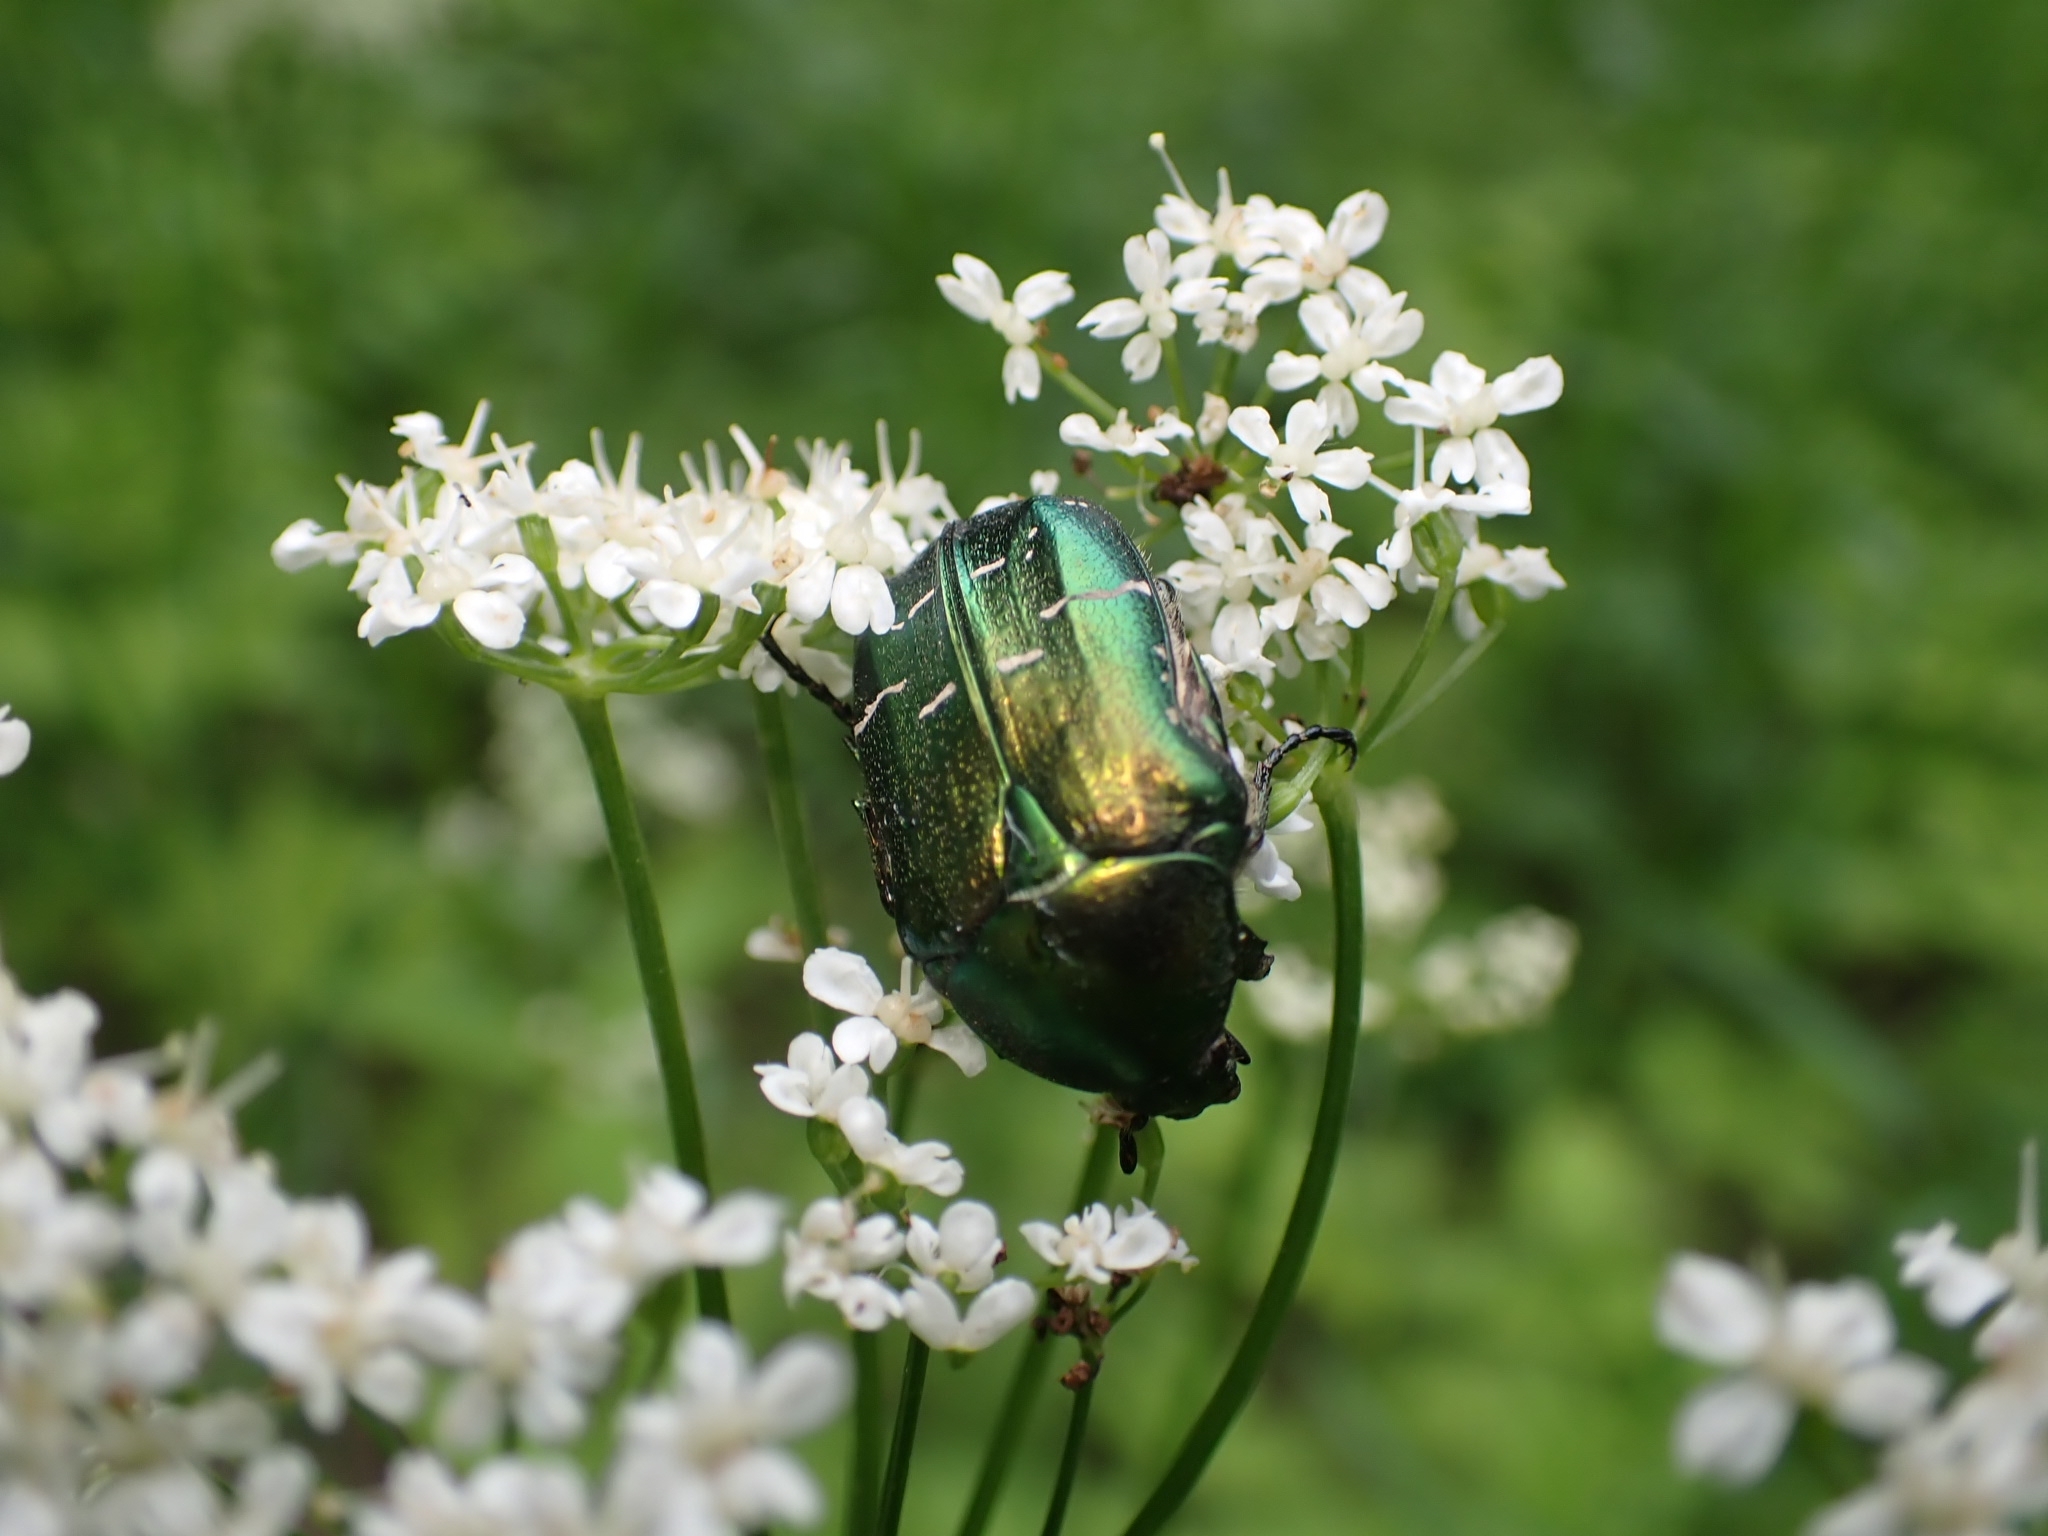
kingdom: Animalia
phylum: Arthropoda
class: Insecta
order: Coleoptera
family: Scarabaeidae
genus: Cetonia
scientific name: Cetonia aurata
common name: Rose chafer
